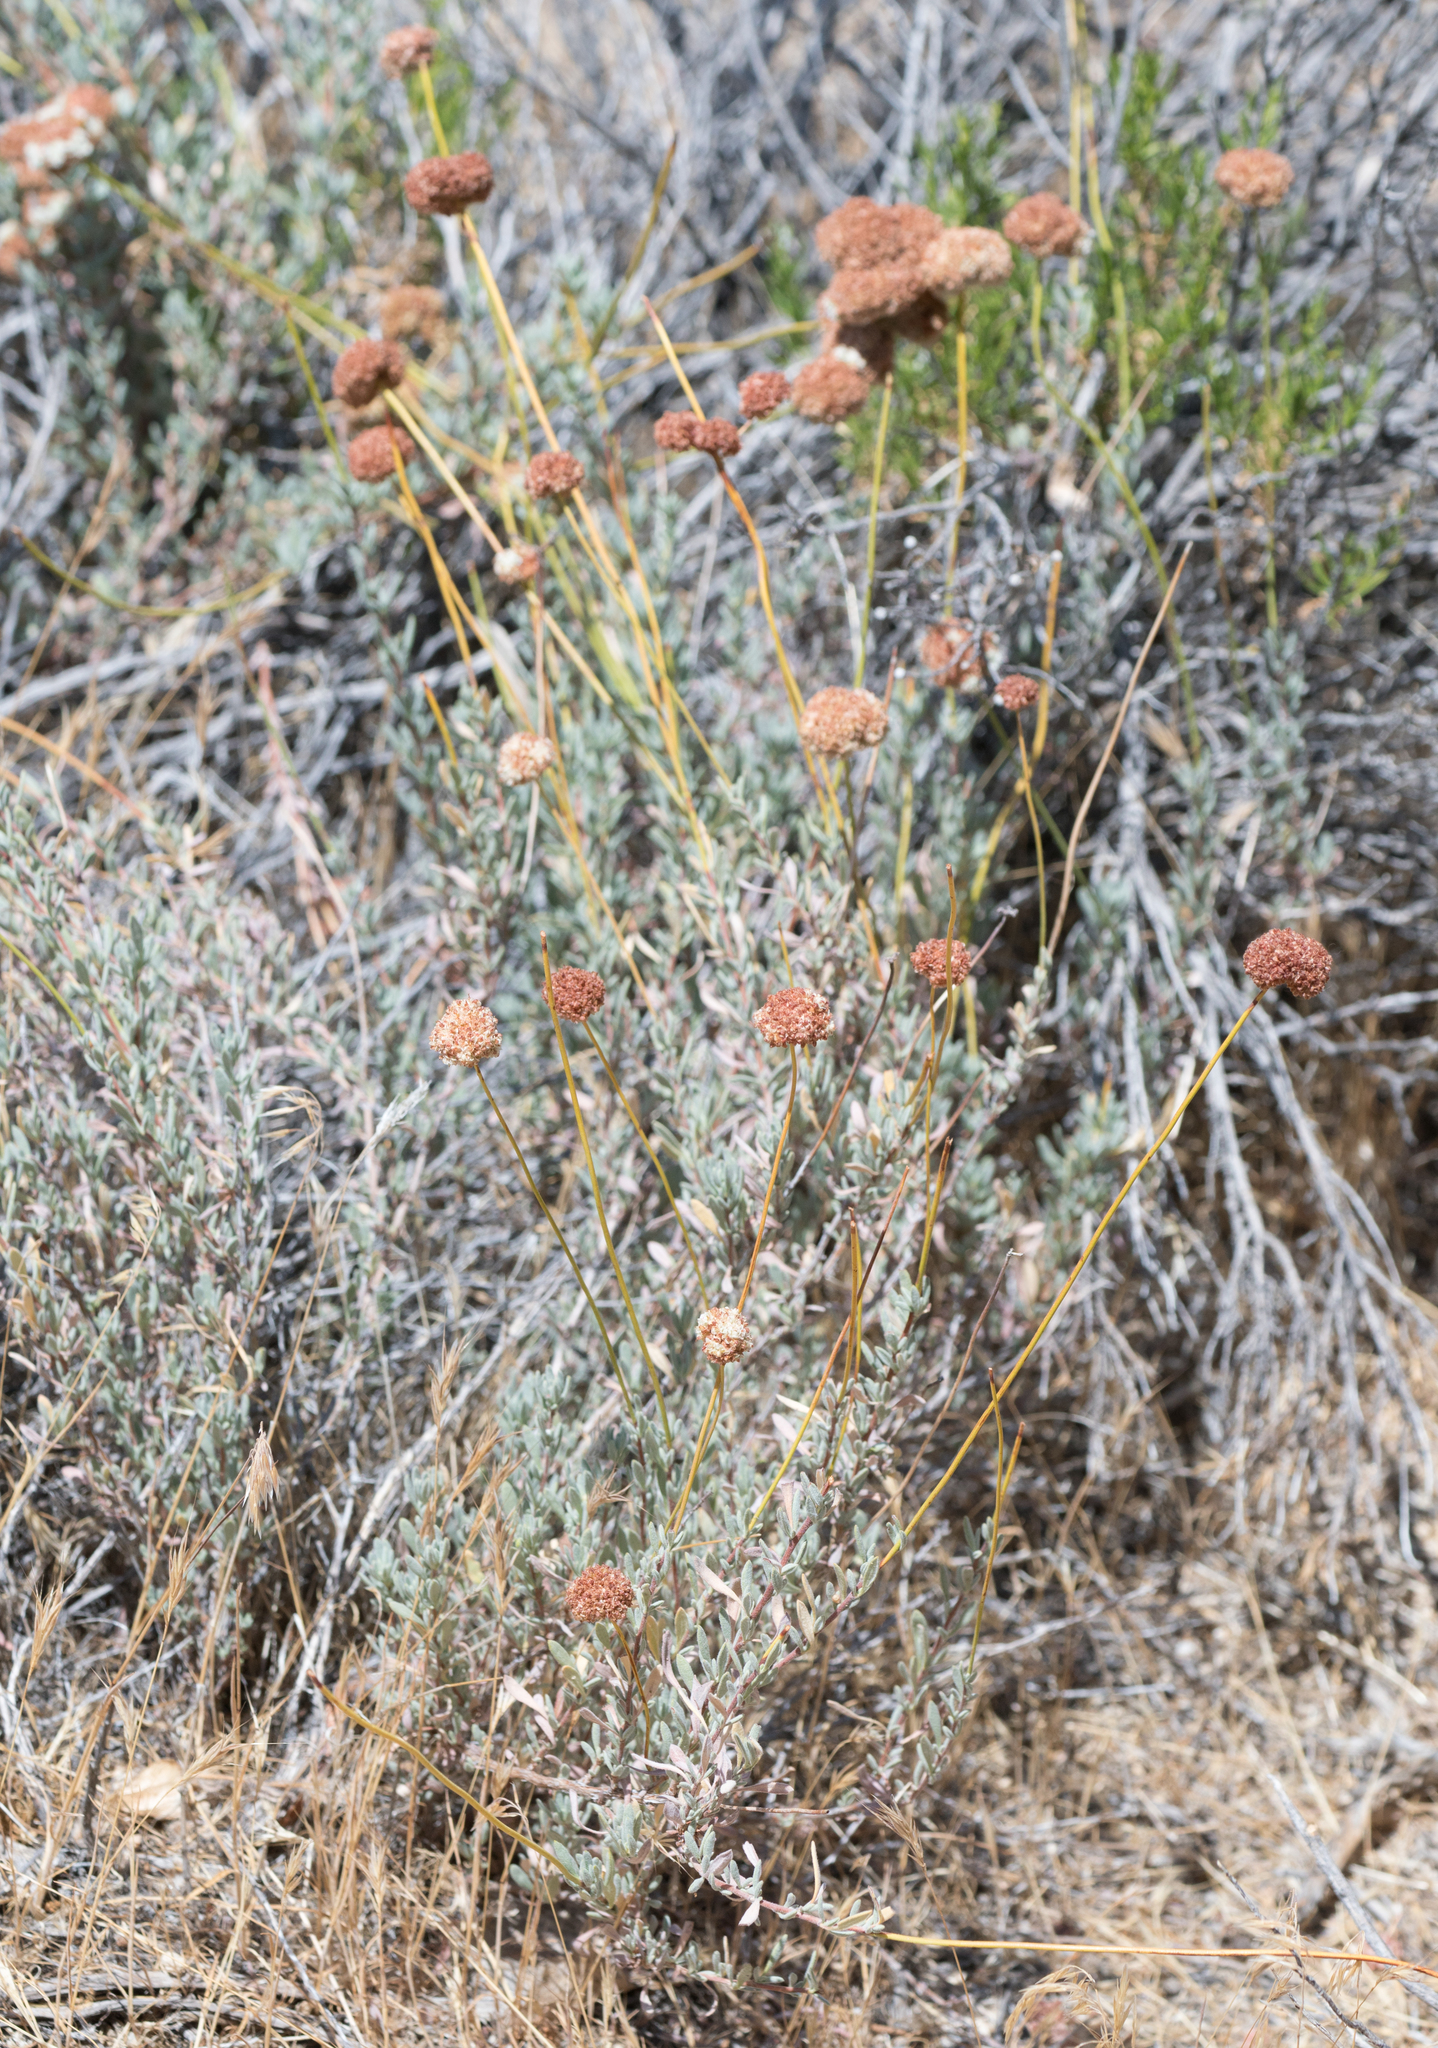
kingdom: Plantae
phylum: Tracheophyta
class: Magnoliopsida
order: Caryophyllales
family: Polygonaceae
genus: Eriogonum
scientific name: Eriogonum fasciculatum
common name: California wild buckwheat
